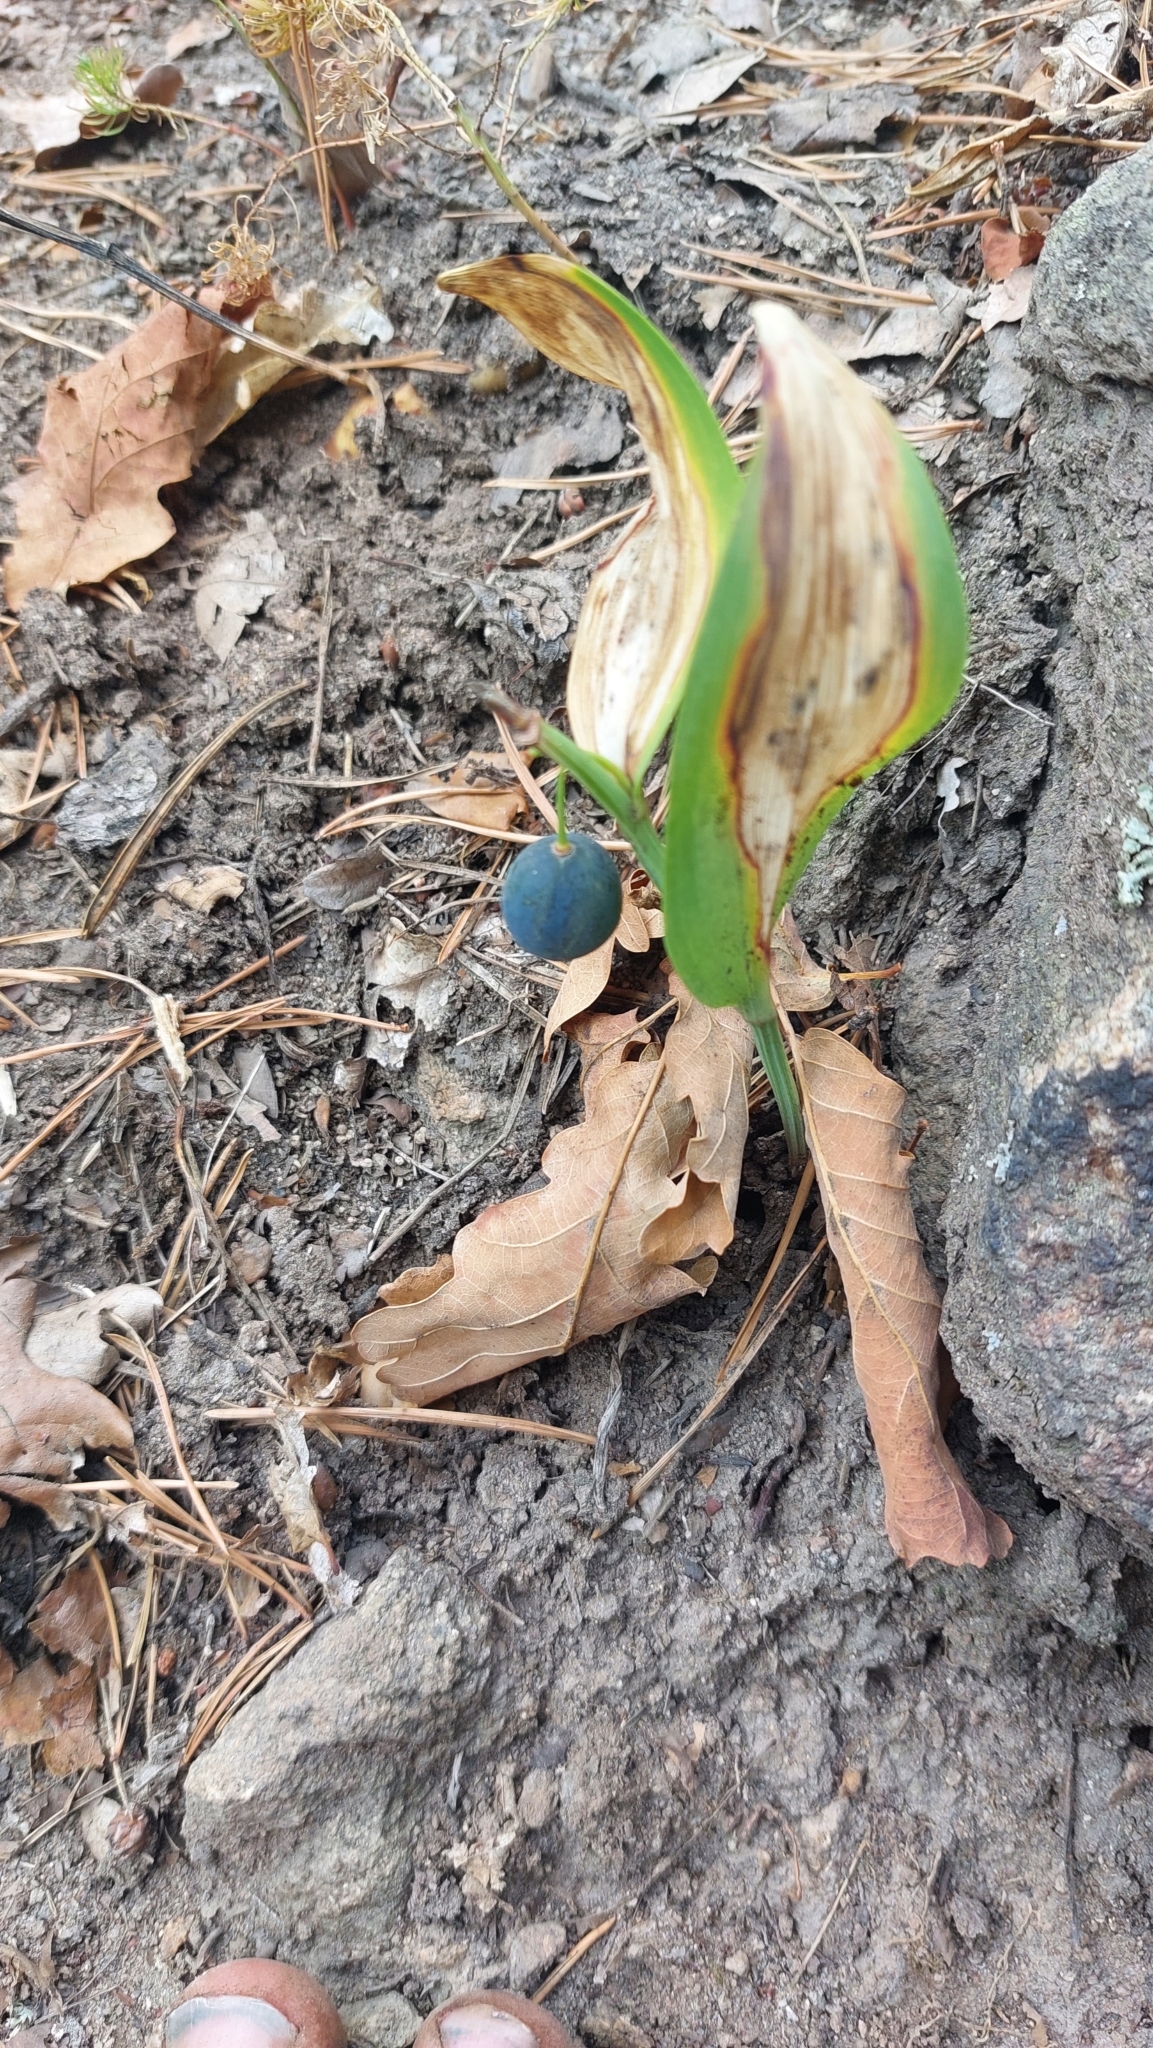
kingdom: Plantae
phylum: Tracheophyta
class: Liliopsida
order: Asparagales
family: Asparagaceae
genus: Polygonatum
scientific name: Polygonatum odoratum
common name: Angular solomon's-seal
